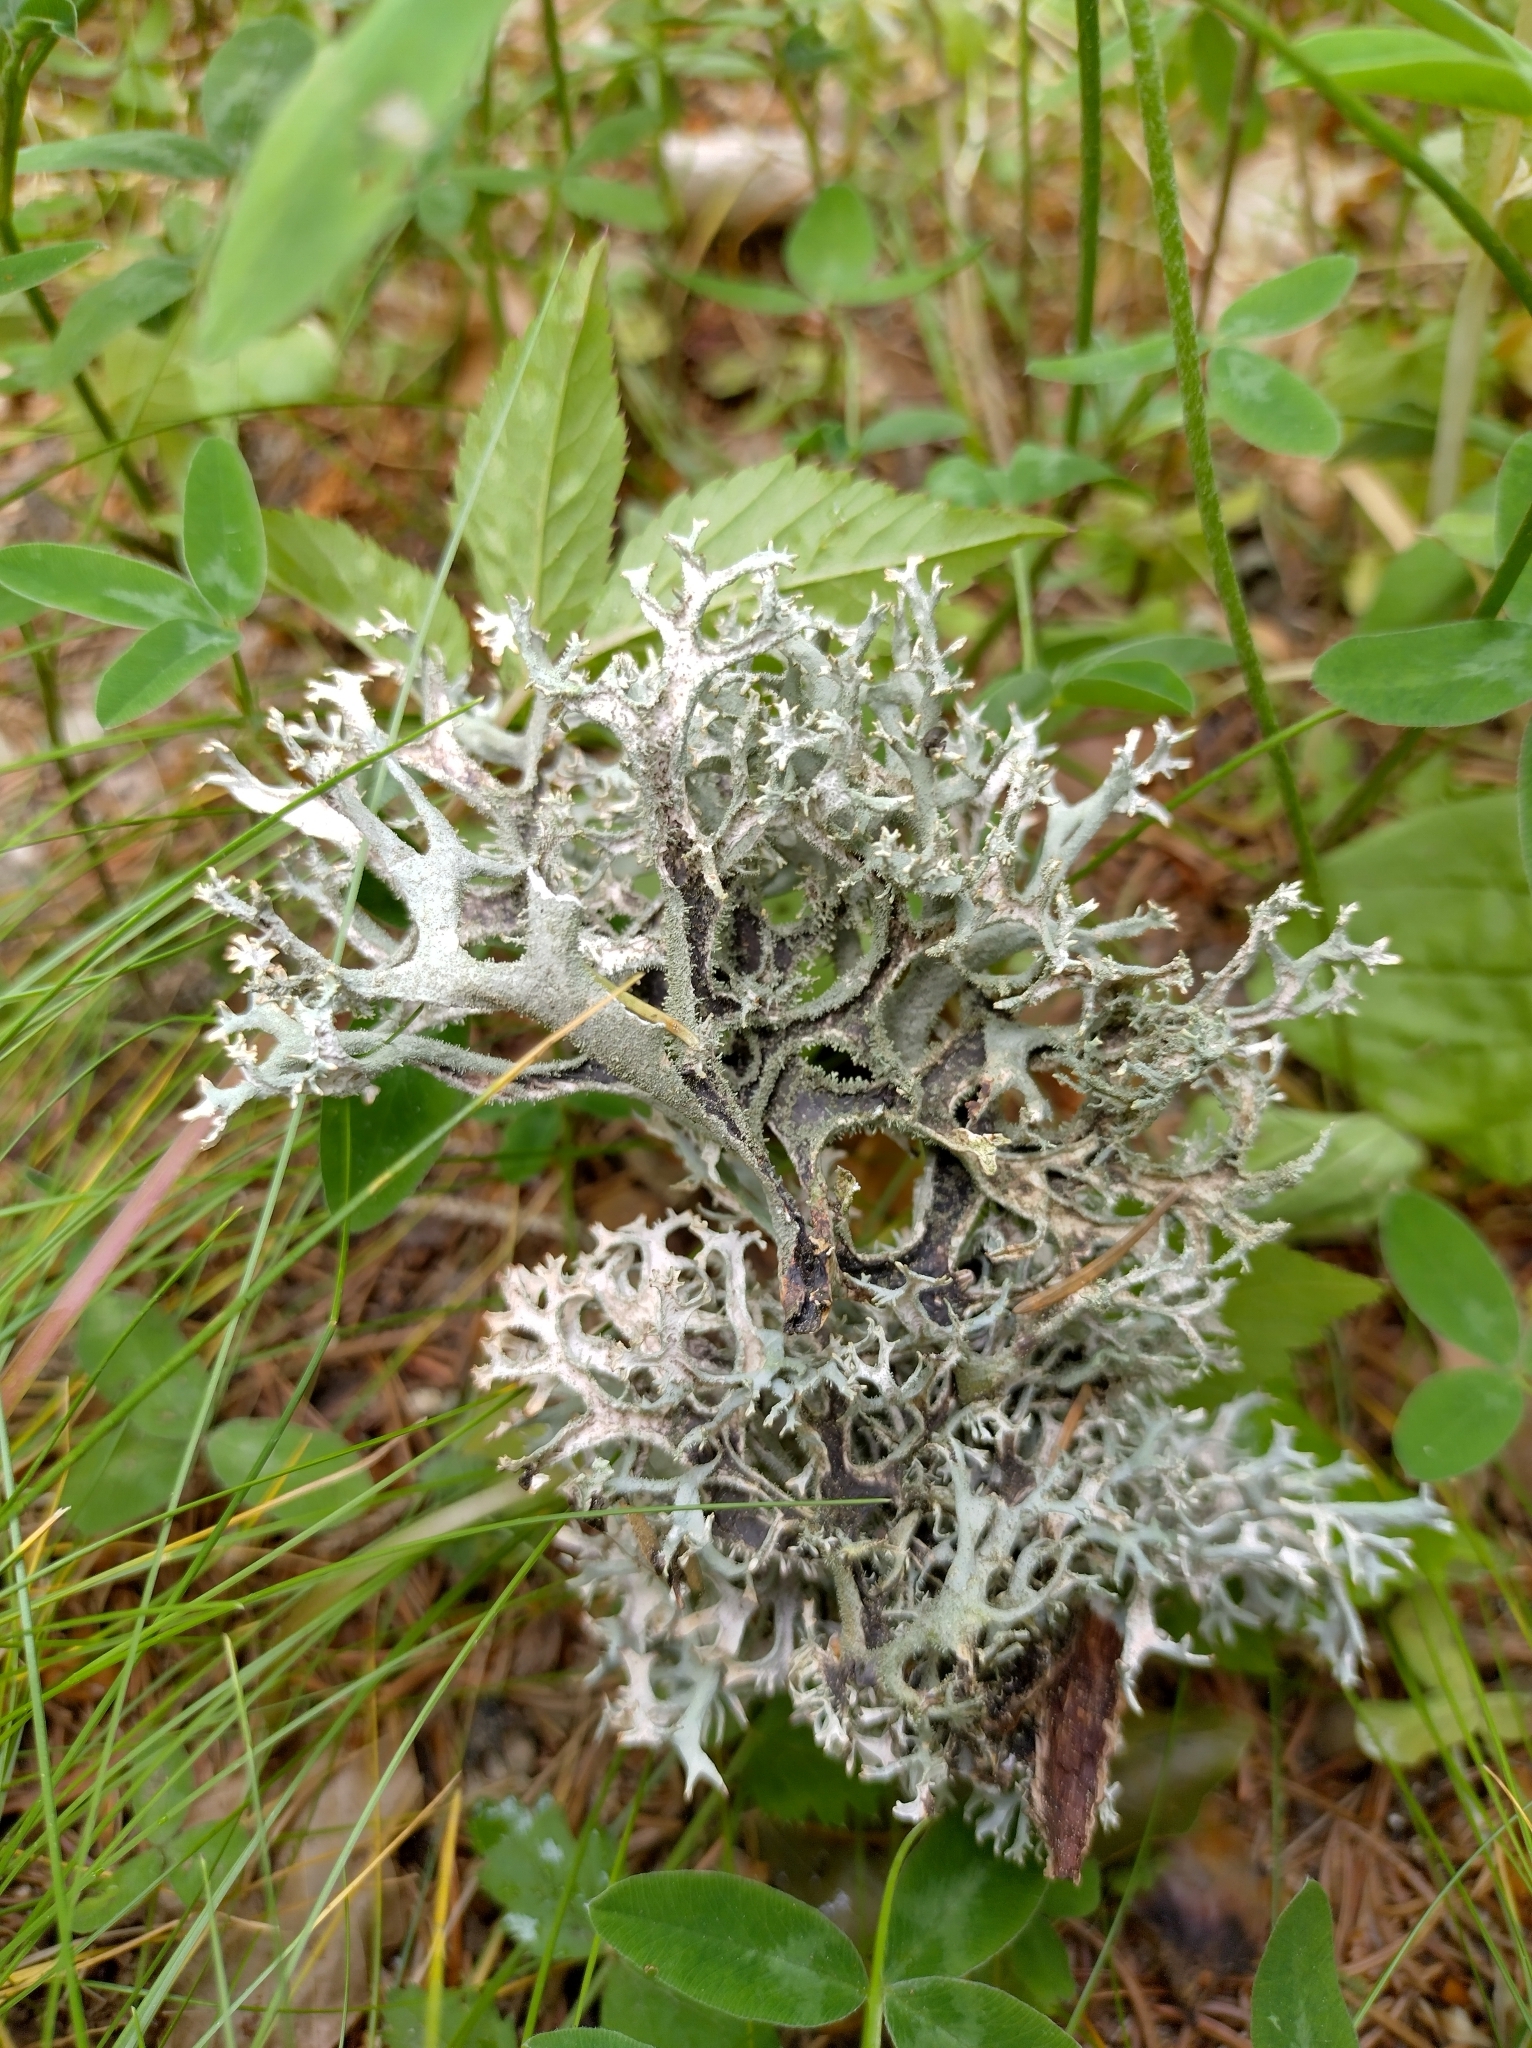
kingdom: Fungi
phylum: Ascomycota
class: Lecanoromycetes
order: Lecanorales
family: Parmeliaceae
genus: Pseudevernia
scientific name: Pseudevernia furfuracea
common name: Tree moss
